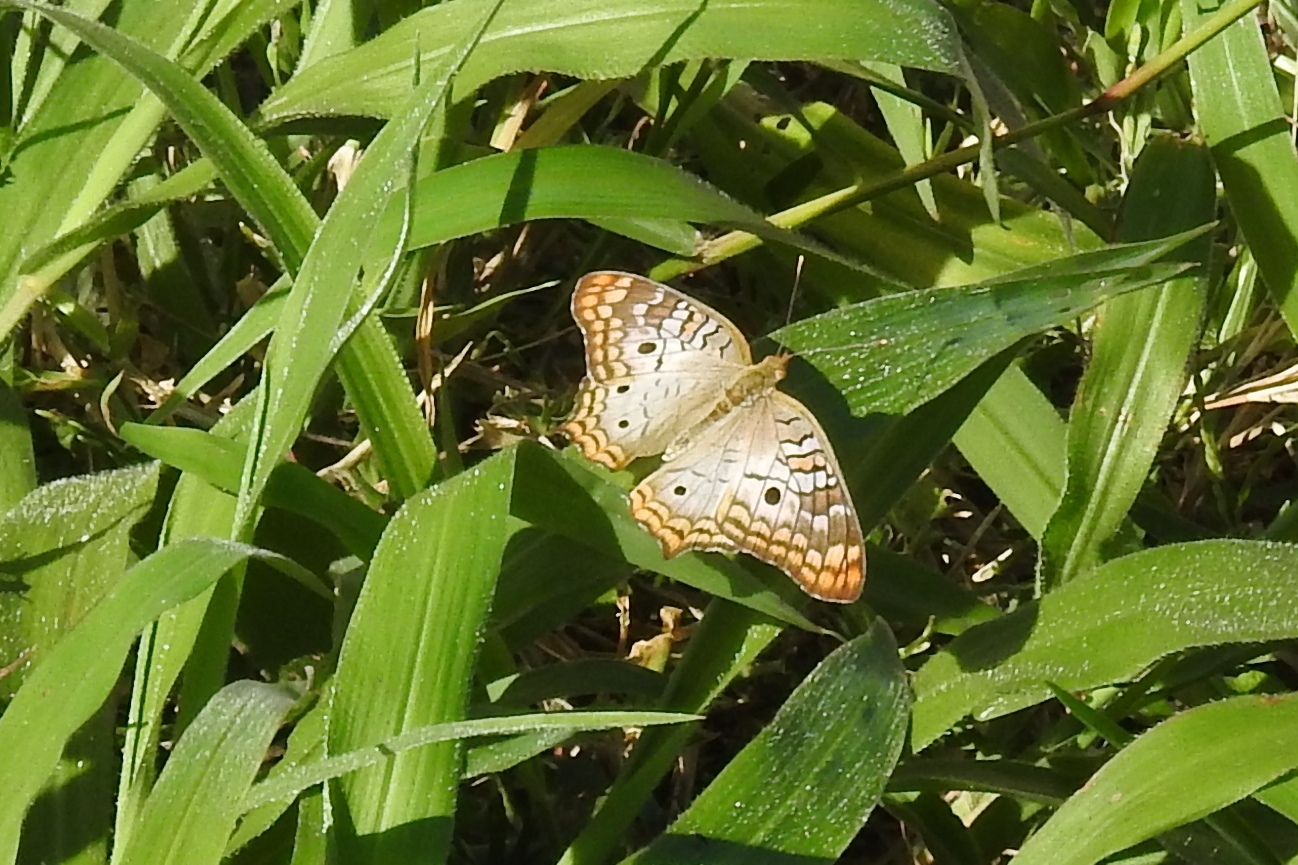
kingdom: Animalia
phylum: Arthropoda
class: Insecta
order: Lepidoptera
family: Nymphalidae
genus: Anartia
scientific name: Anartia jatrophae
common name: White peacock
